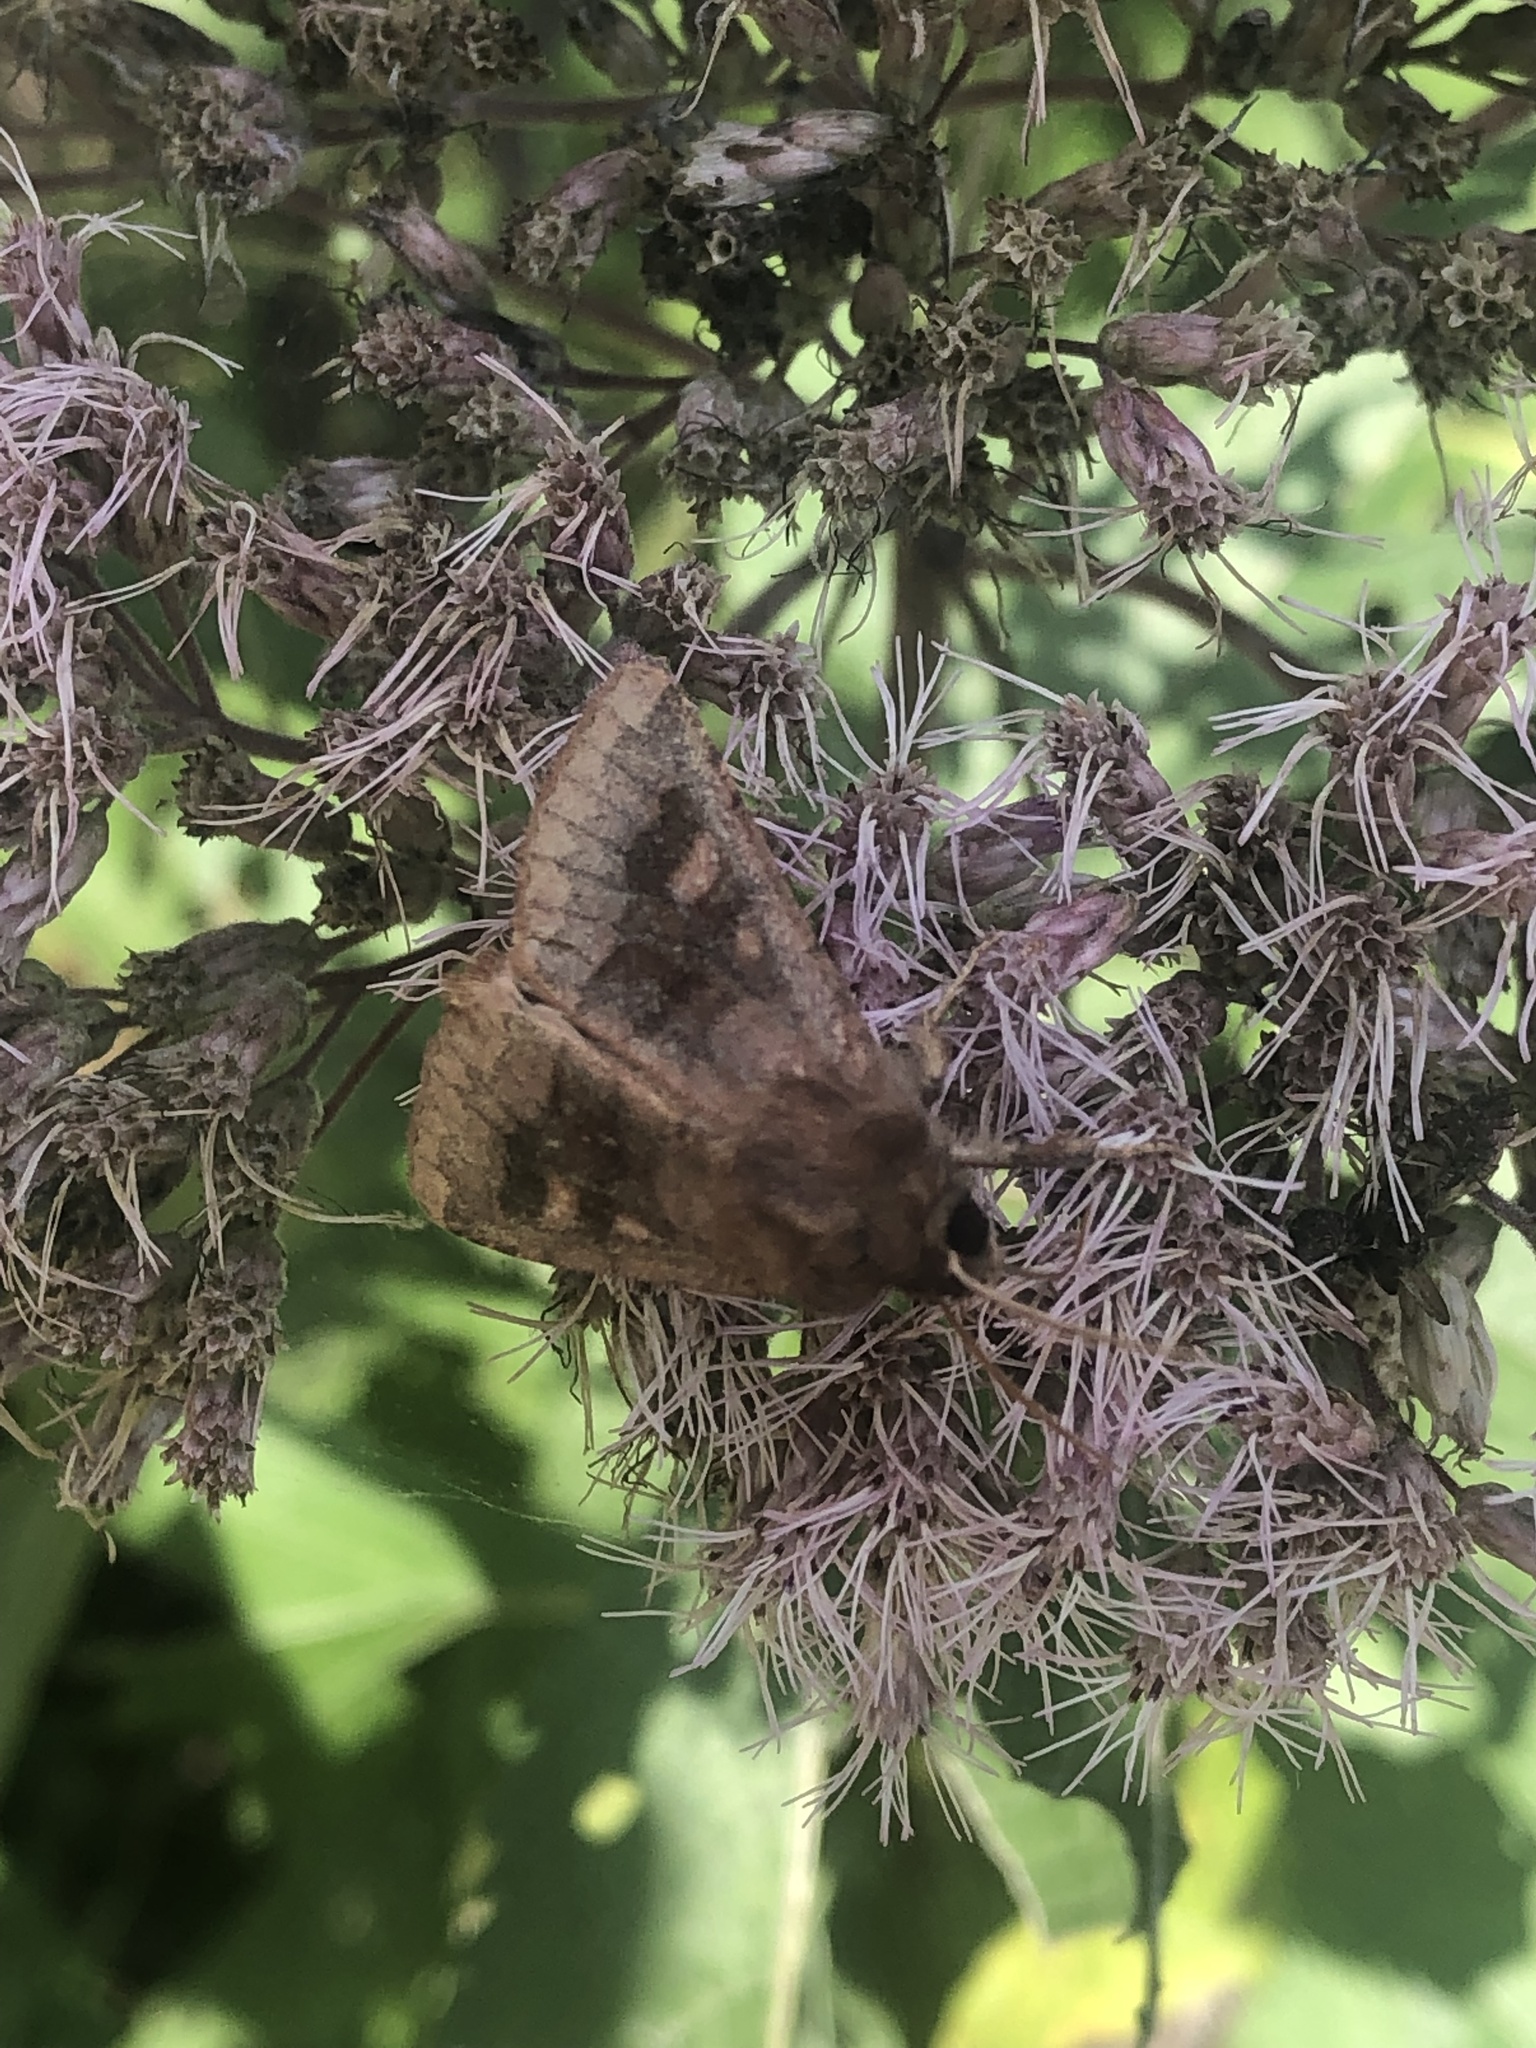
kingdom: Animalia
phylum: Arthropoda
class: Insecta
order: Lepidoptera
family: Noctuidae
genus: Nephelodes
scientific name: Nephelodes minians
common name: Bronzed cutworm
